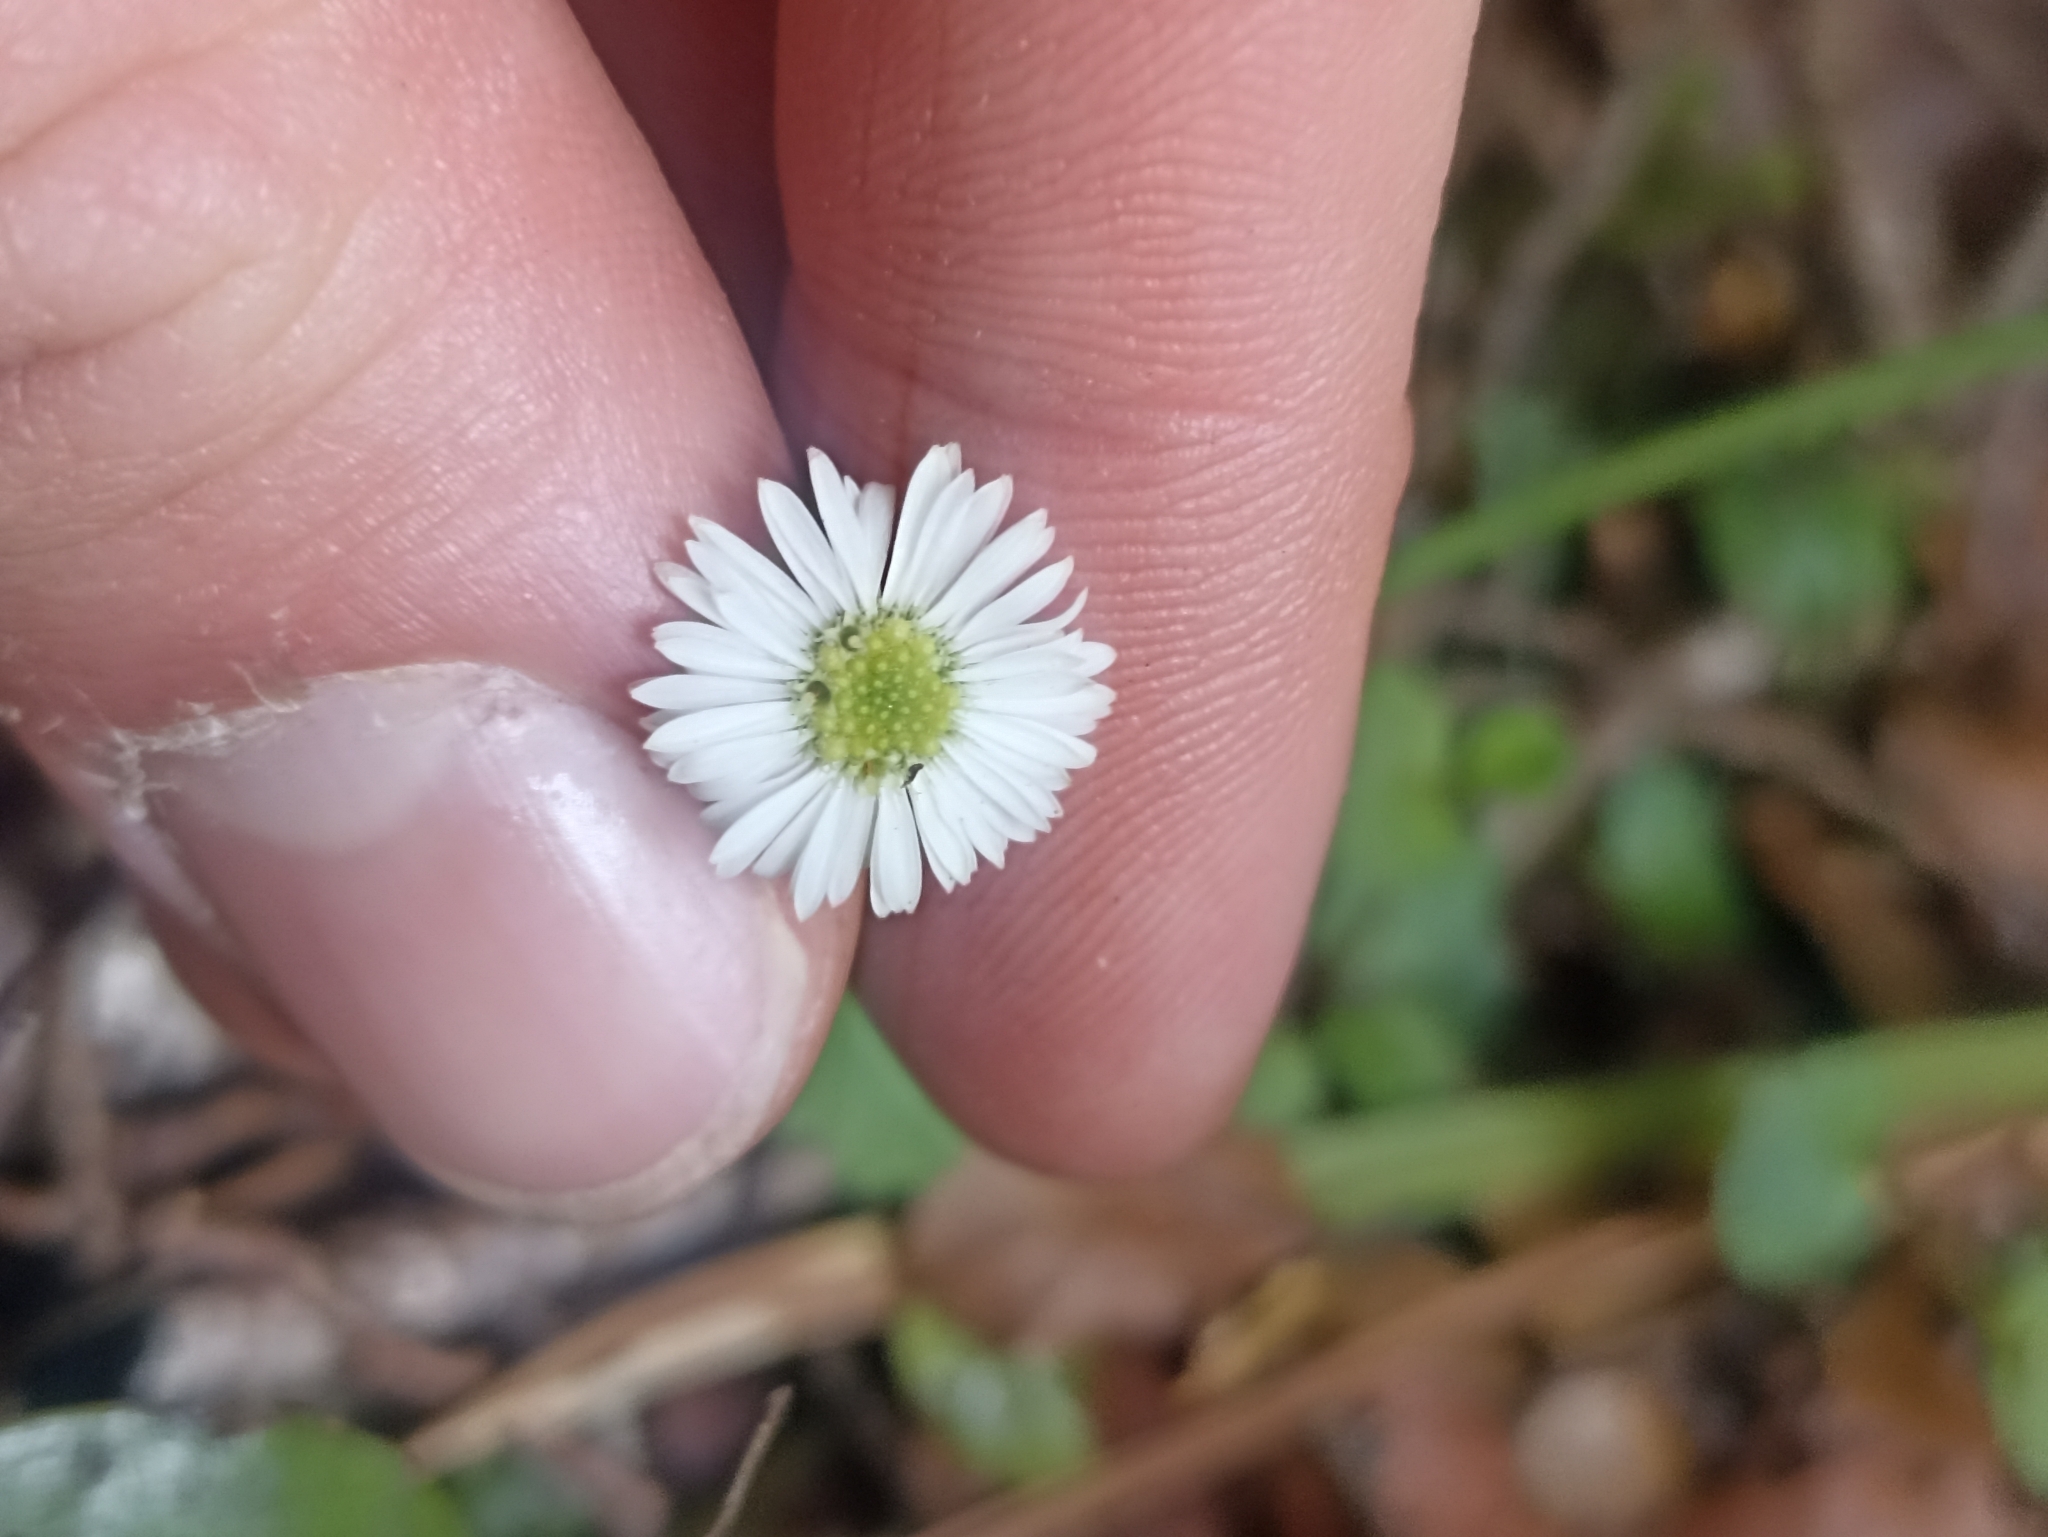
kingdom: Plantae
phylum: Tracheophyta
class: Magnoliopsida
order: Asterales
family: Asteraceae
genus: Lagenophora
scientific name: Lagenophora pumila
